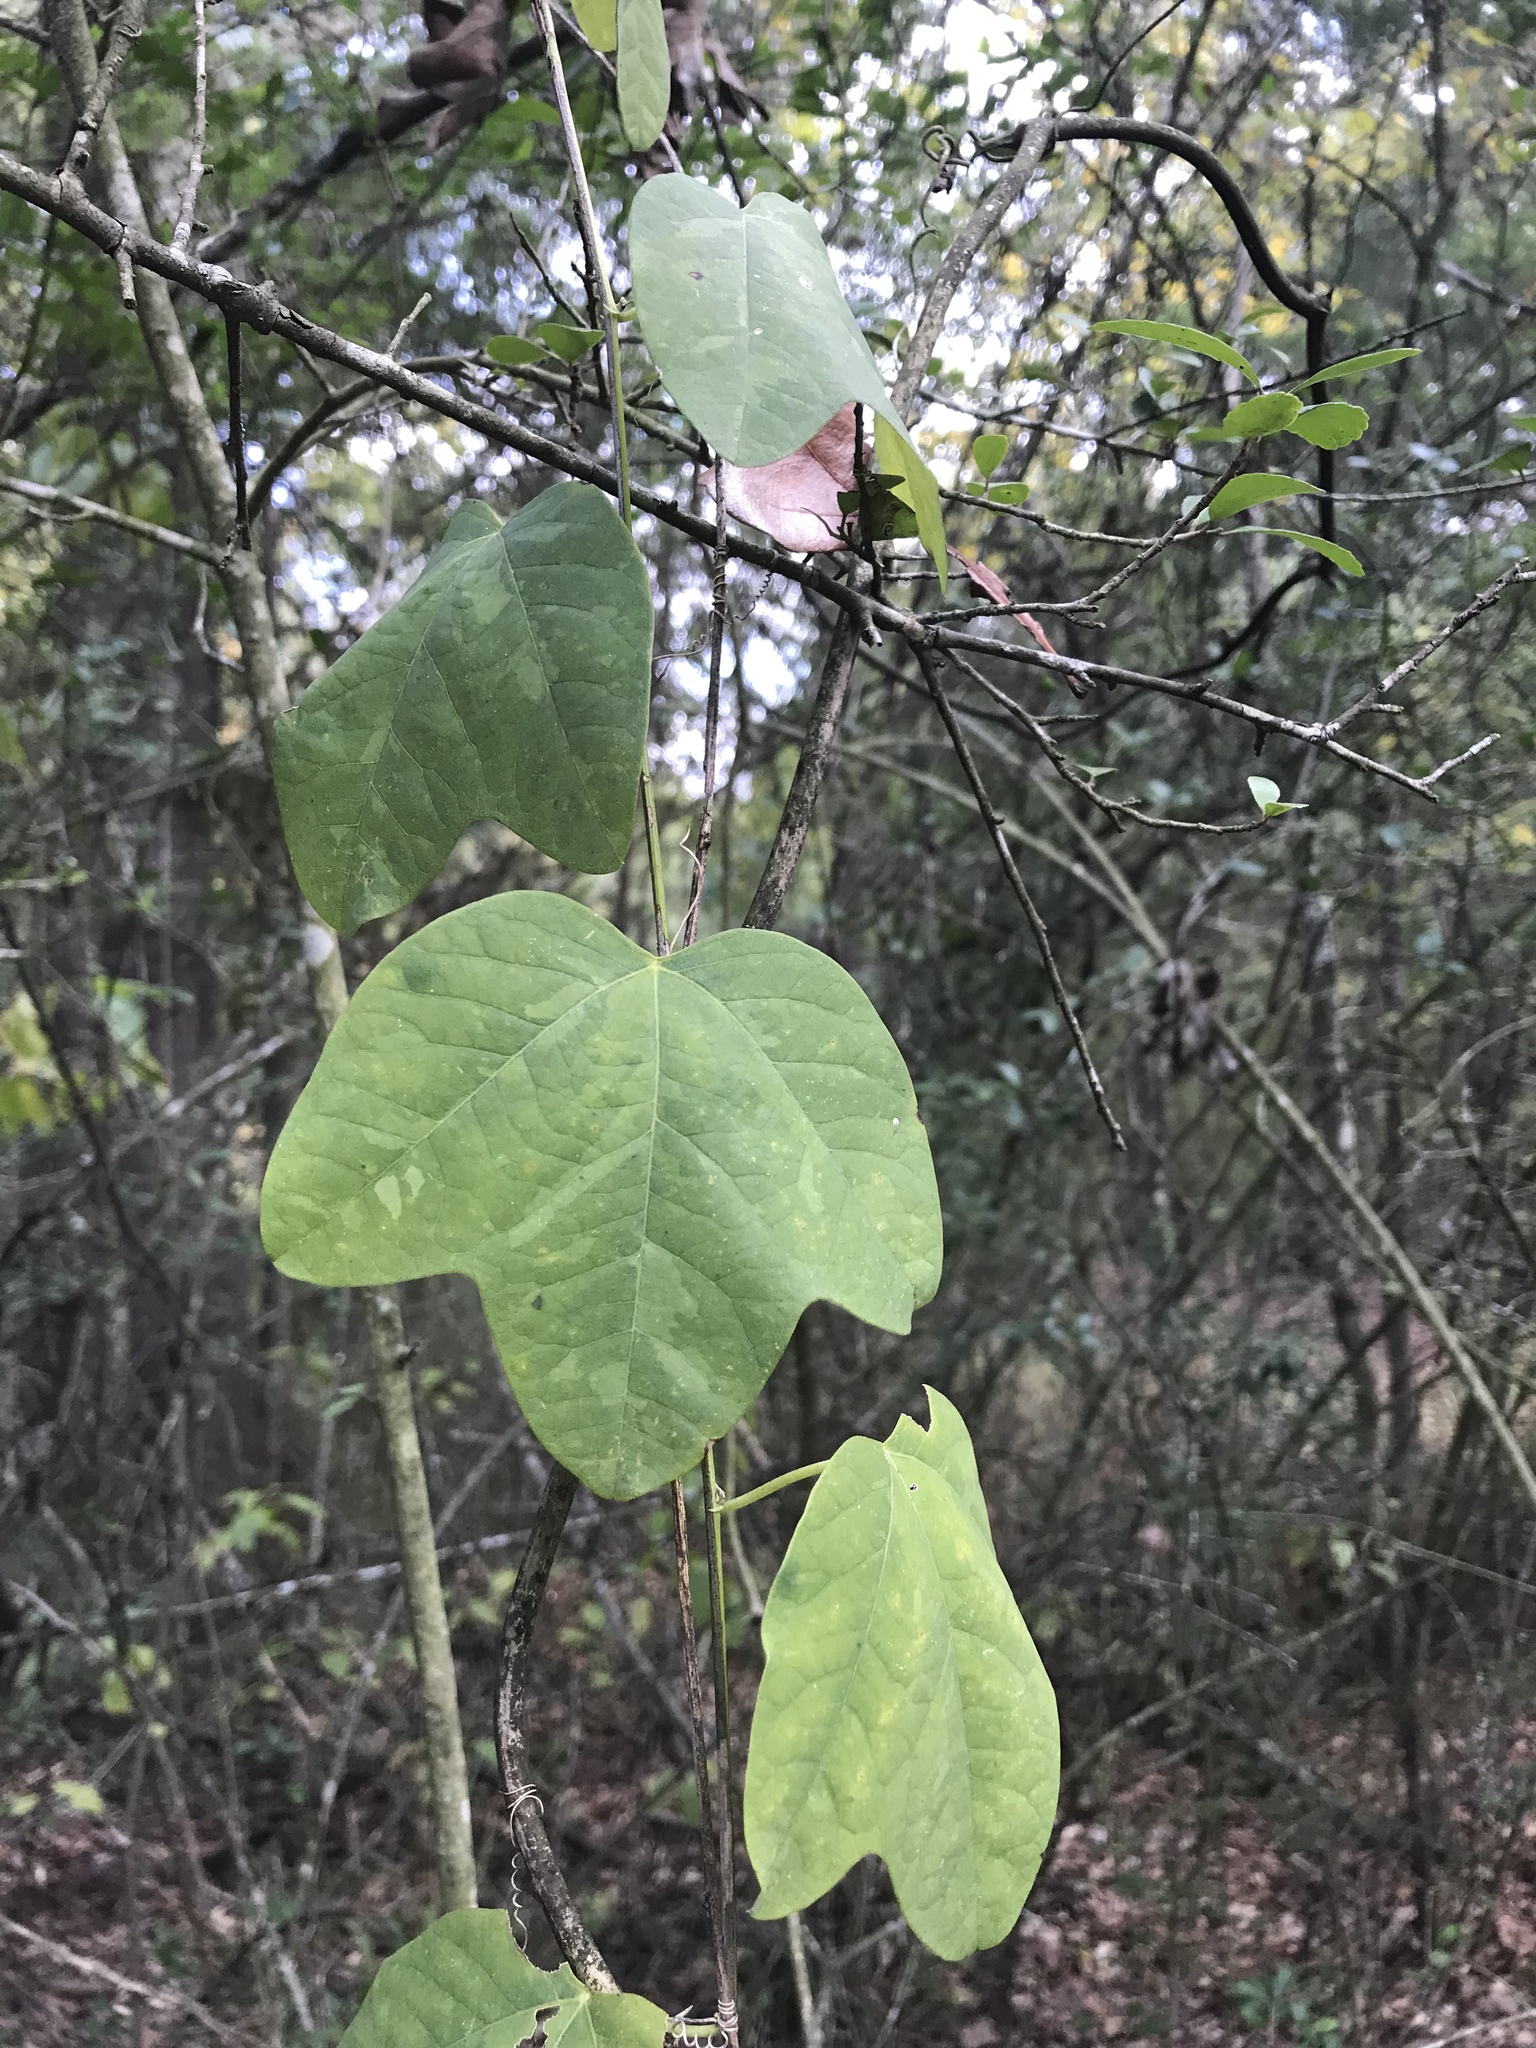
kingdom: Plantae
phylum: Tracheophyta
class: Magnoliopsida
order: Malpighiales
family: Passifloraceae
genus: Passiflora
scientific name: Passiflora lutea
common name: Yellow passionflower
